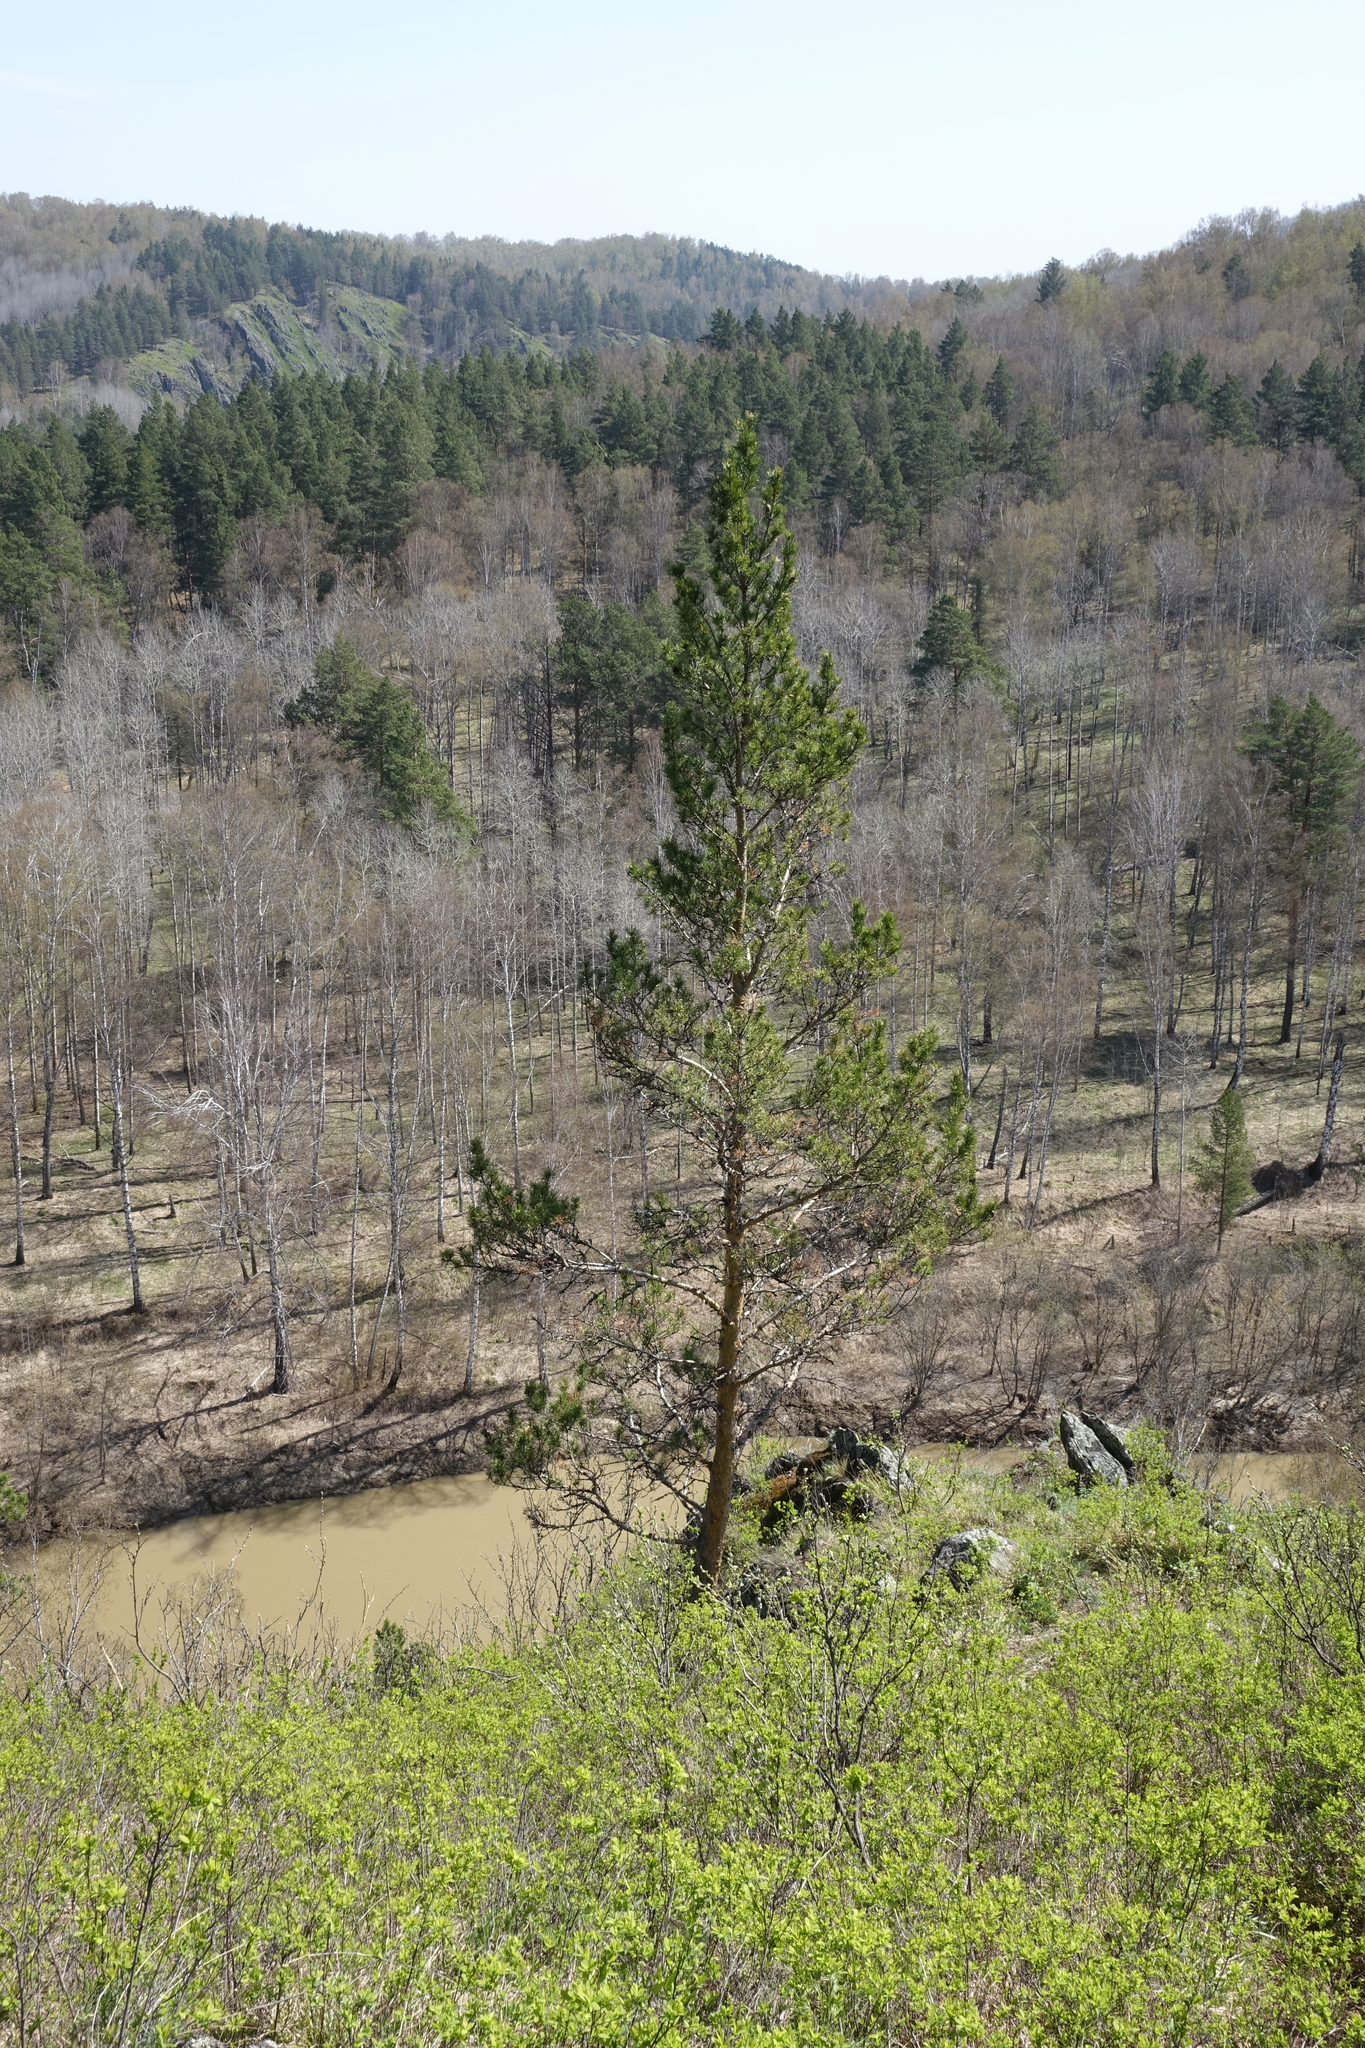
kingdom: Plantae
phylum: Tracheophyta
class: Pinopsida
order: Pinales
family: Pinaceae
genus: Pinus
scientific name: Pinus sylvestris
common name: Scots pine
